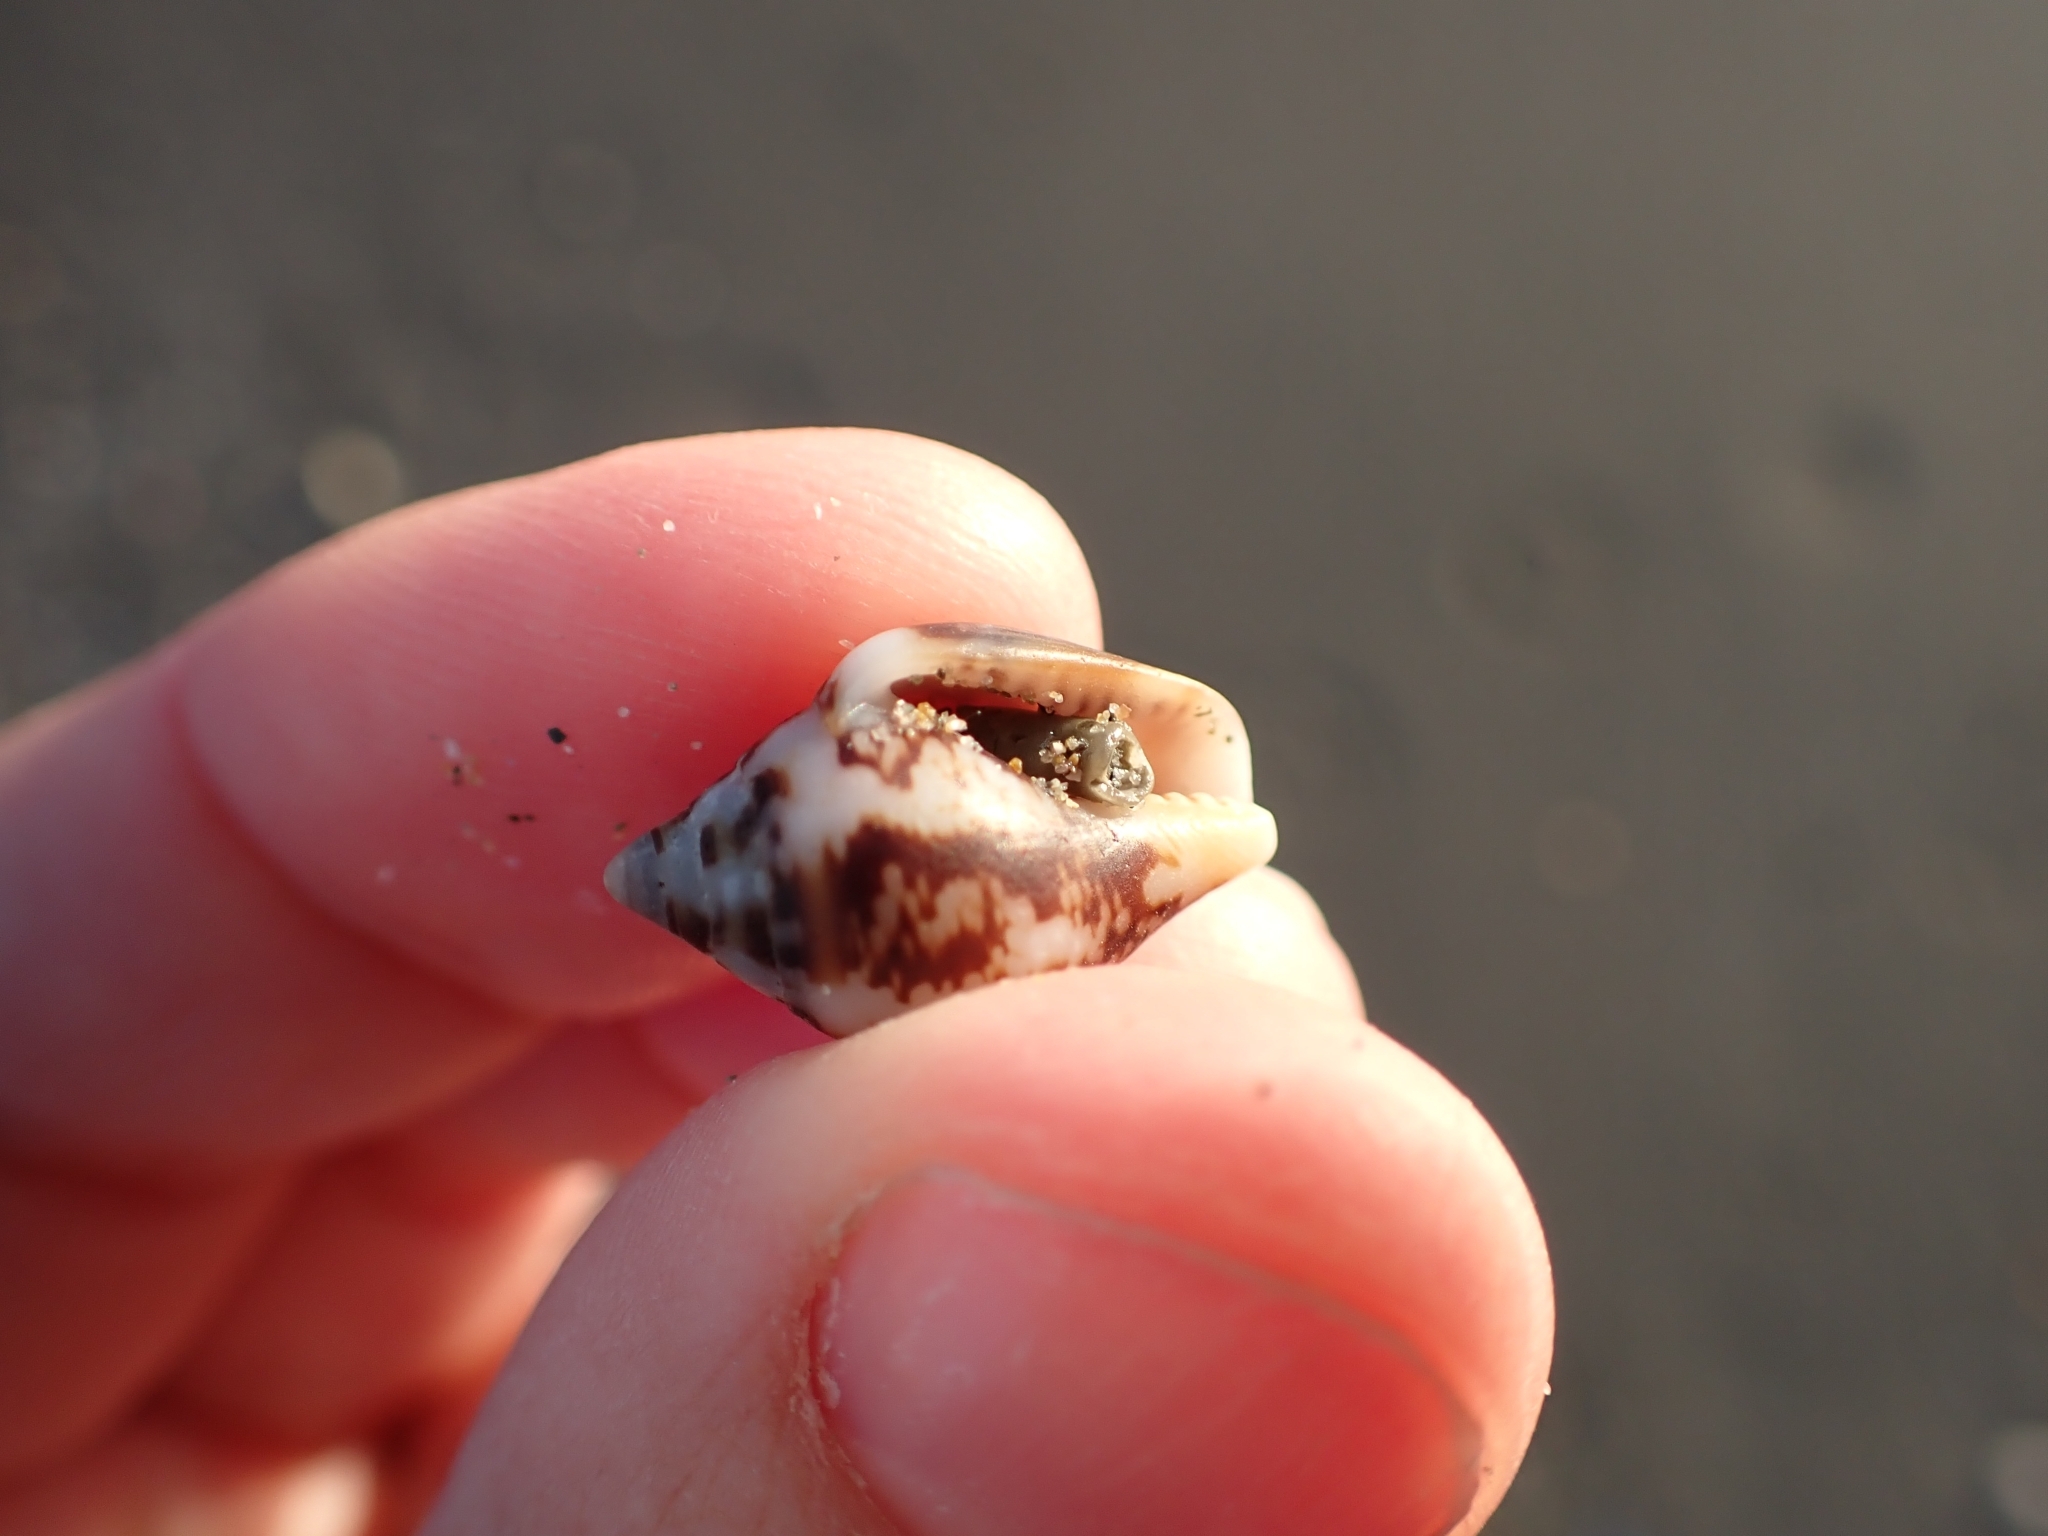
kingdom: Animalia
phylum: Mollusca
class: Gastropoda
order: Neogastropoda
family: Columbellidae
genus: Columbella
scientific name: Columbella rustica
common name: Rustic dove shell
